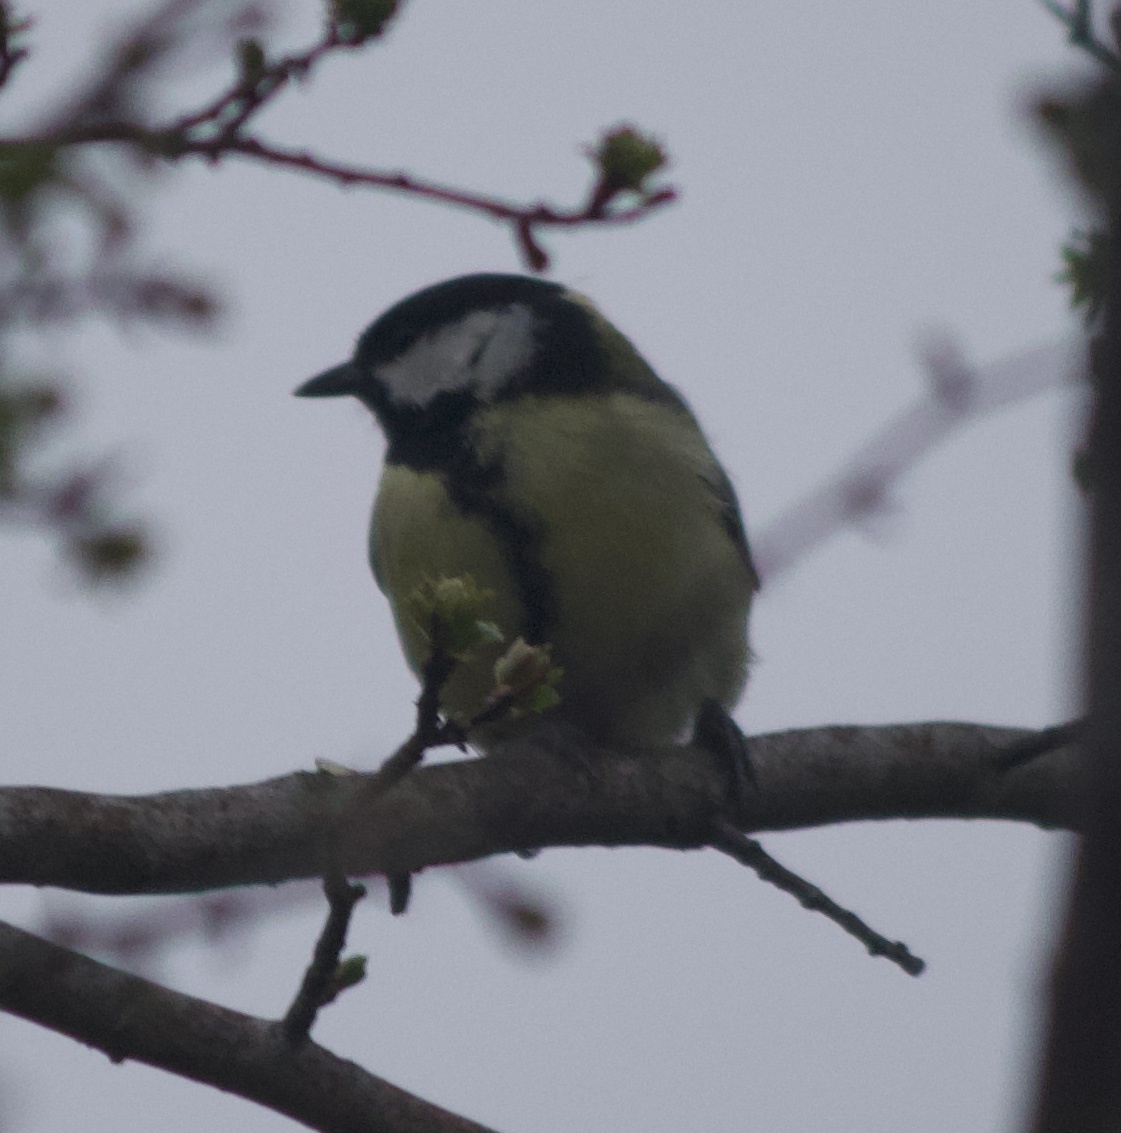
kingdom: Animalia
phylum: Chordata
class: Aves
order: Passeriformes
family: Paridae
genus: Parus
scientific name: Parus major
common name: Great tit
